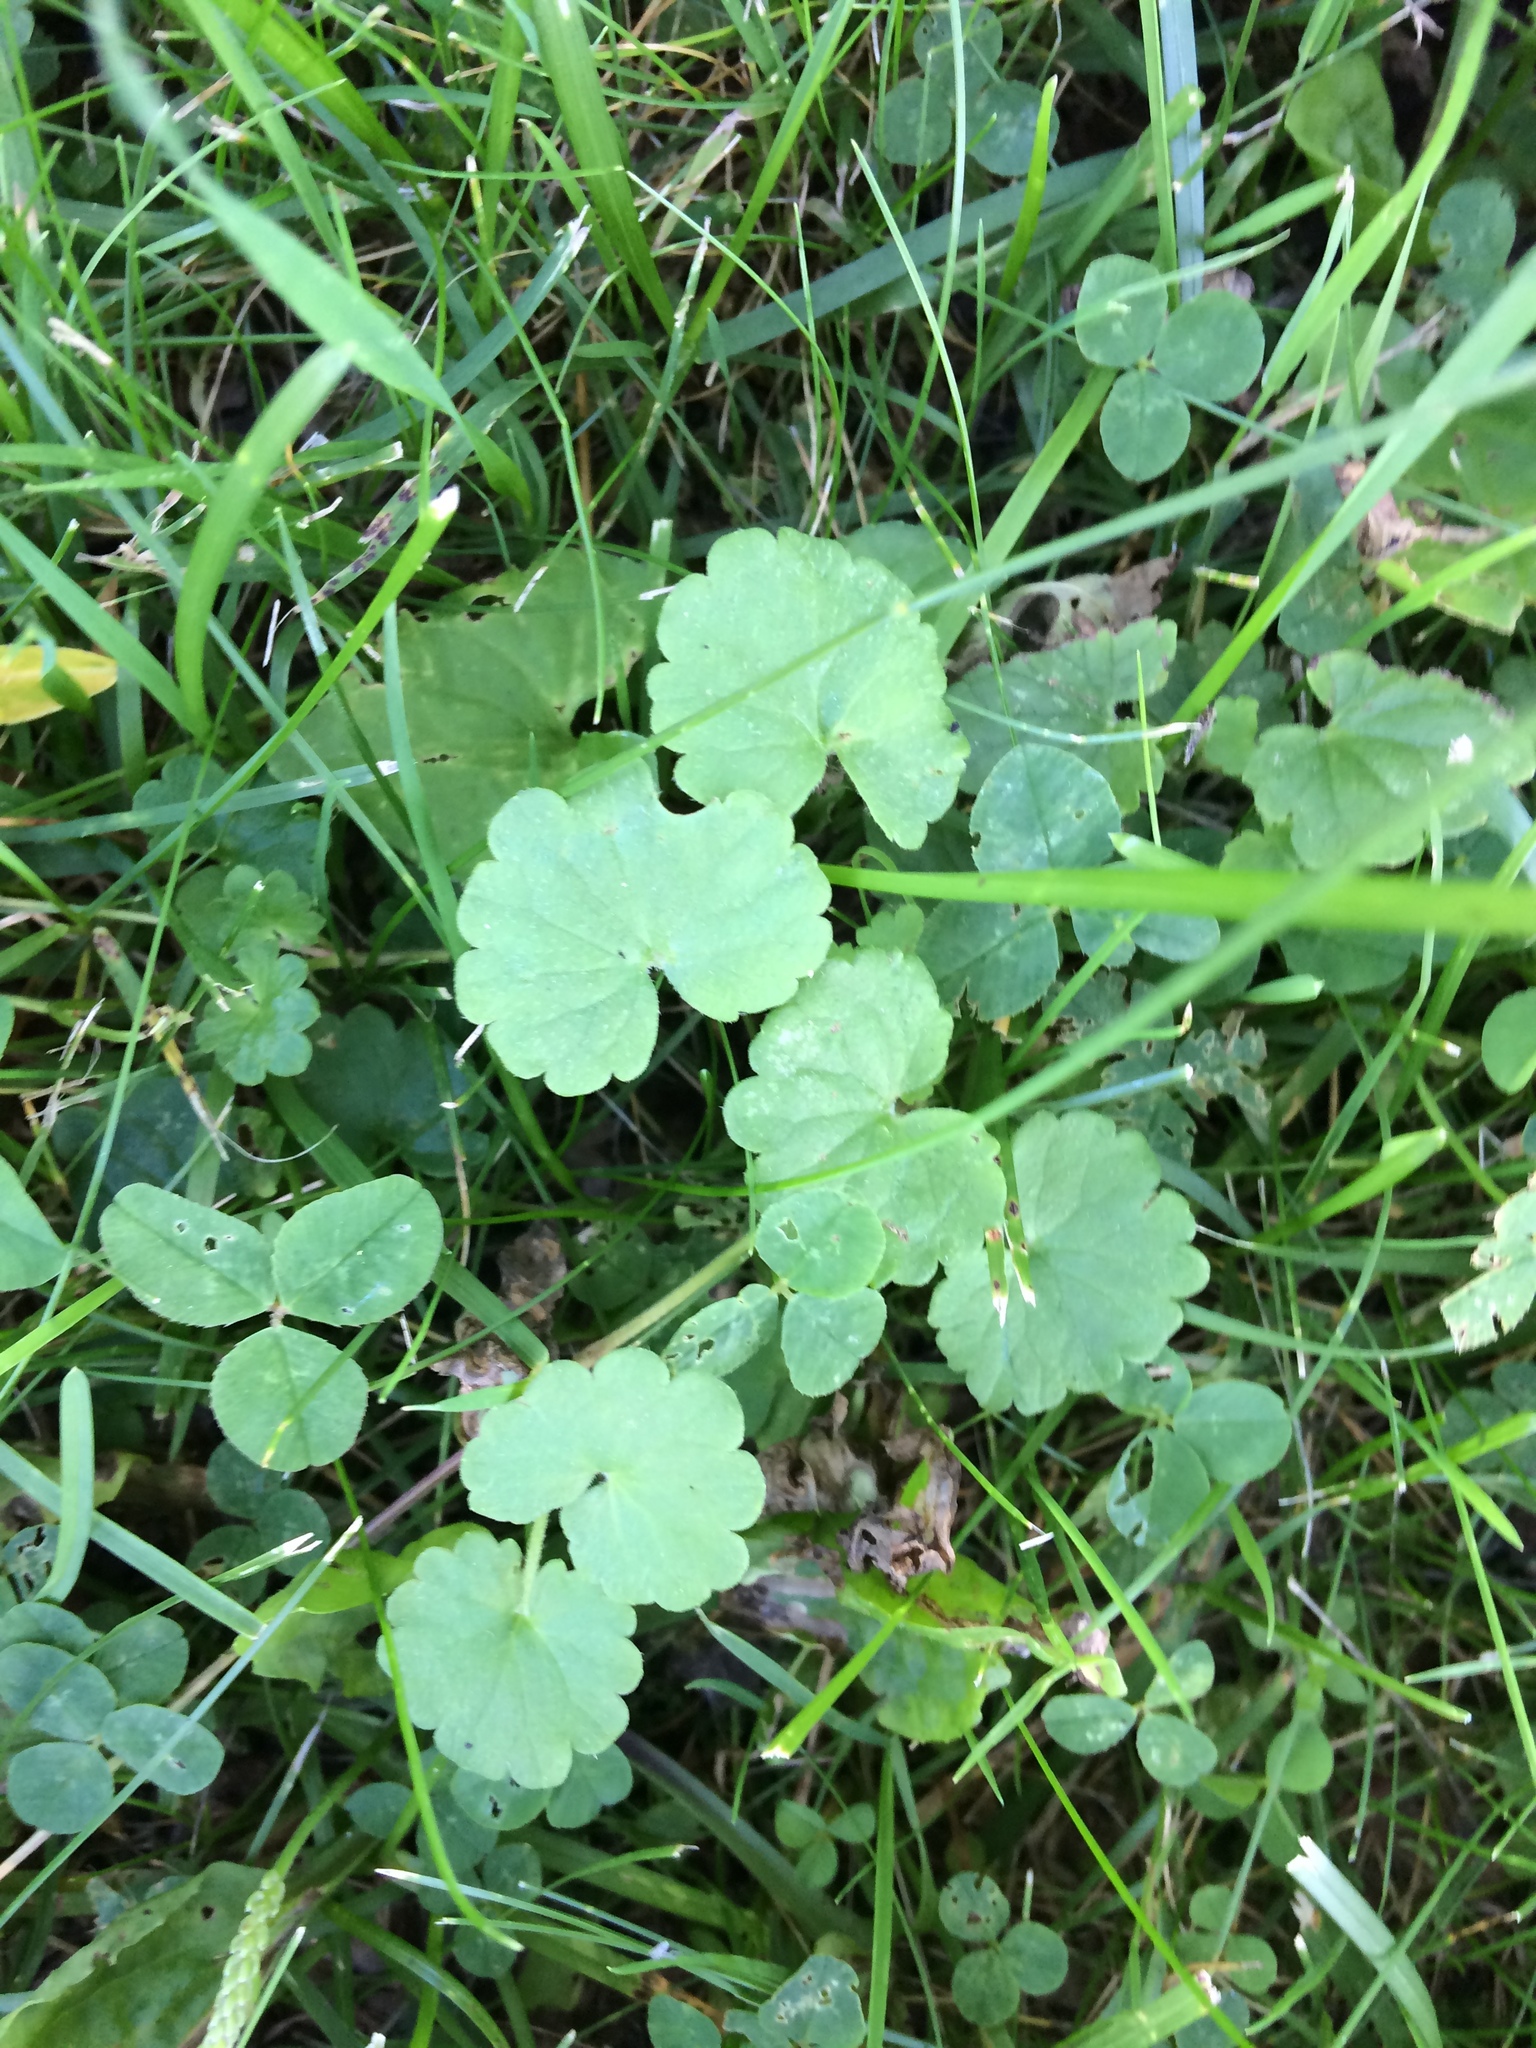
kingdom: Plantae
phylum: Tracheophyta
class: Magnoliopsida
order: Lamiales
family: Lamiaceae
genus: Glechoma
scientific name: Glechoma hederacea
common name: Ground ivy
